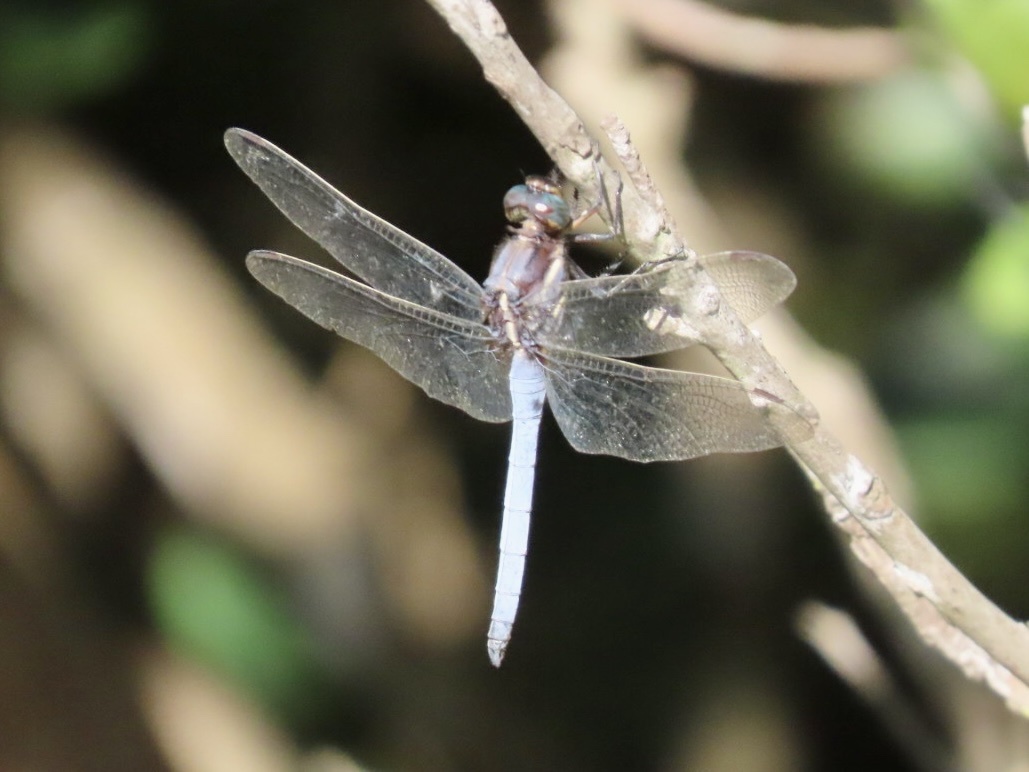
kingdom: Animalia
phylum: Arthropoda
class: Insecta
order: Odonata
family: Libellulidae
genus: Orthetrum
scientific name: Orthetrum glaucum
